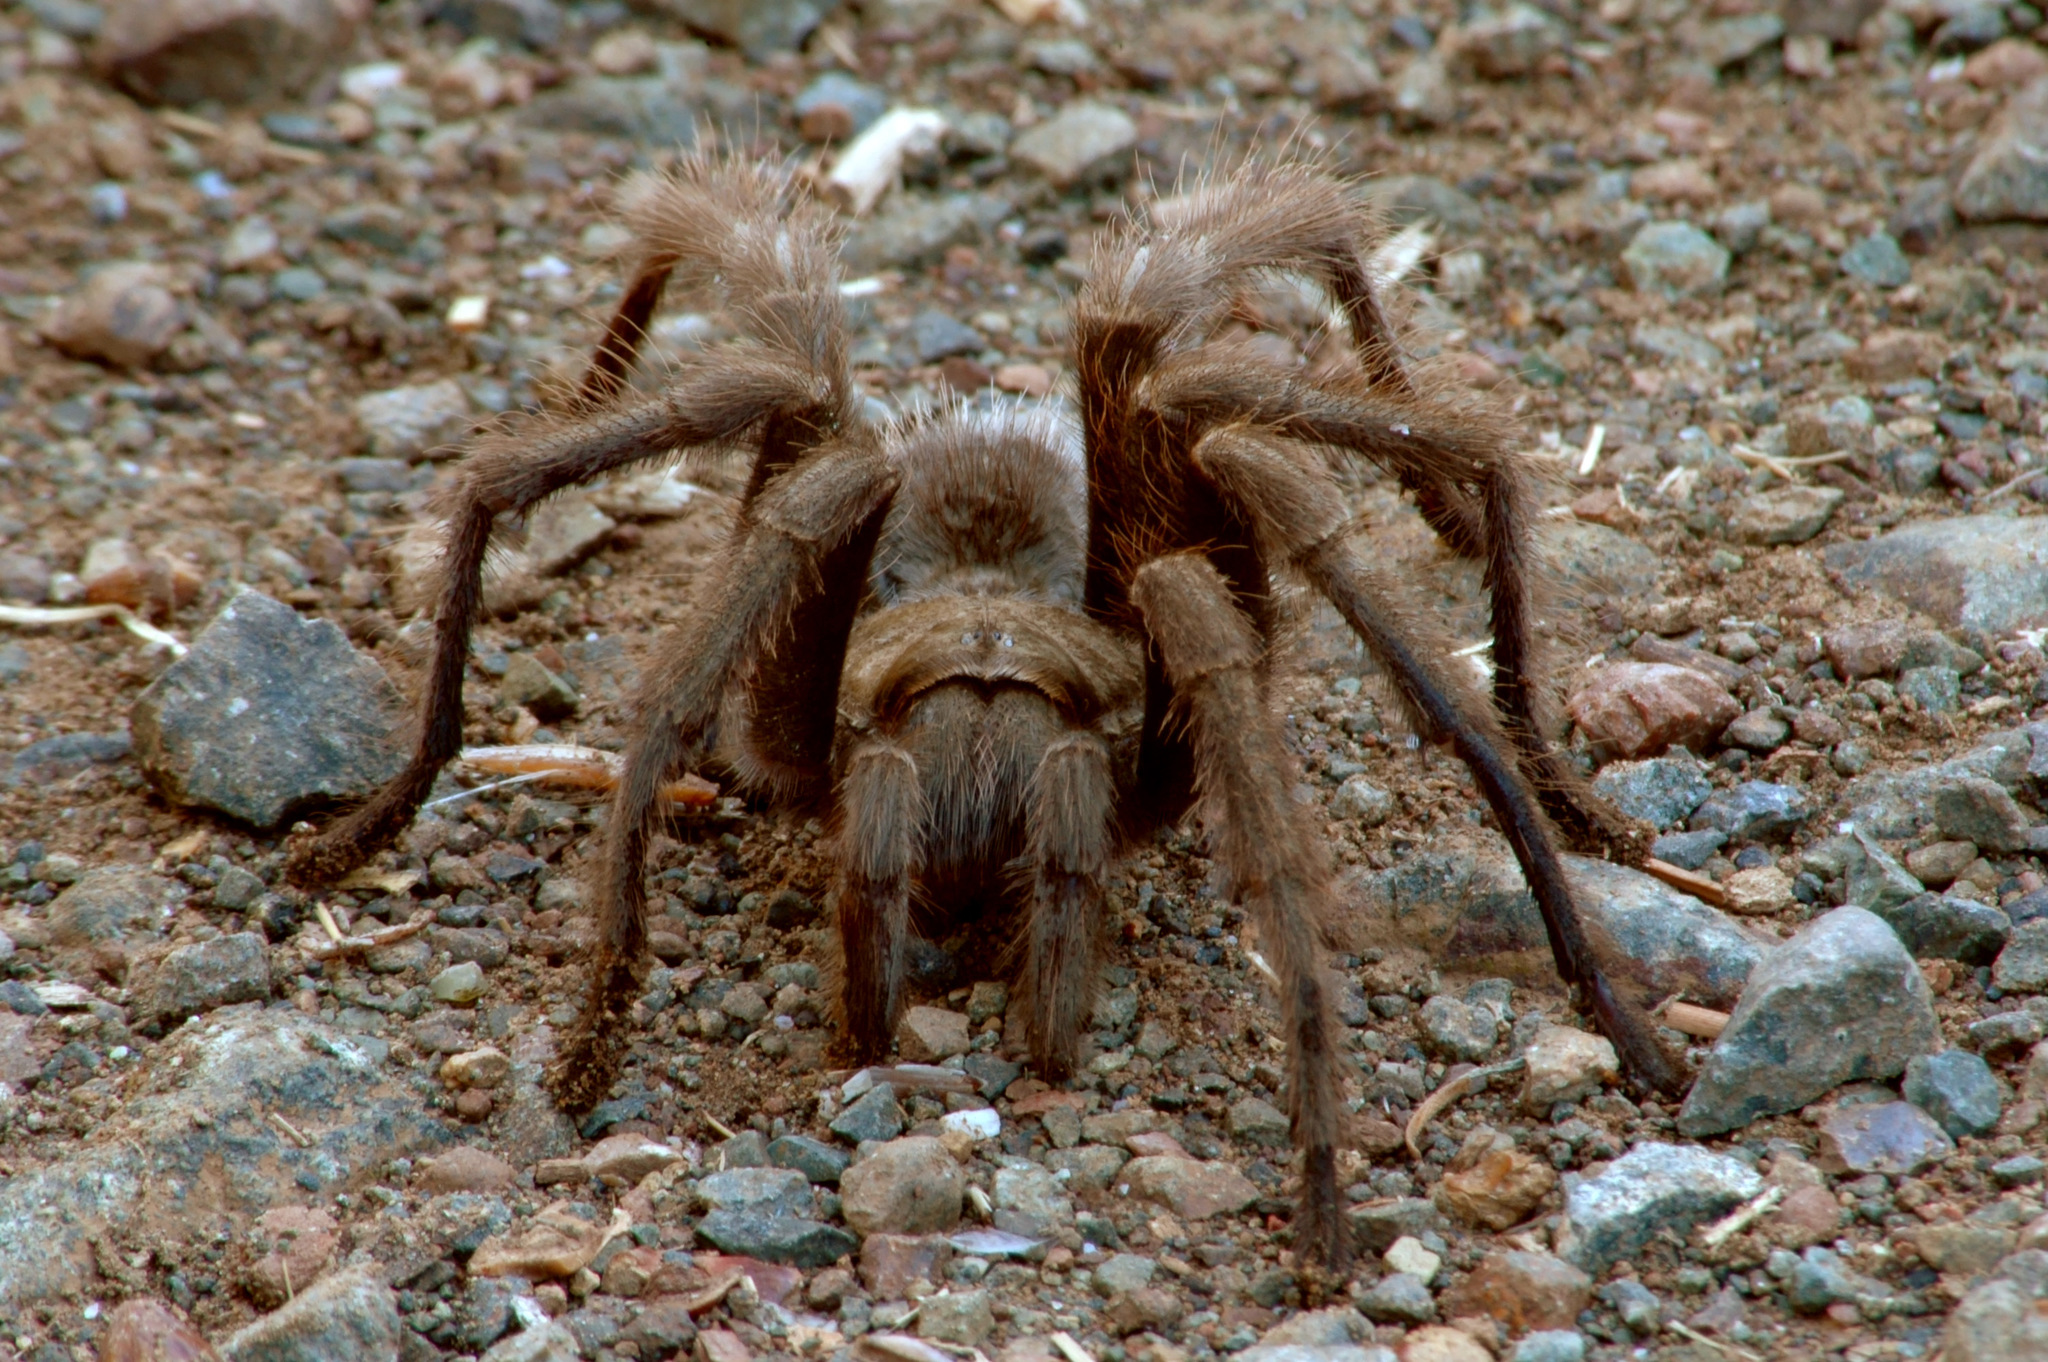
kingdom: Animalia
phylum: Arthropoda
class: Arachnida
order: Araneae
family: Theraphosidae
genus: Aphonopelma
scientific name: Aphonopelma iodius
